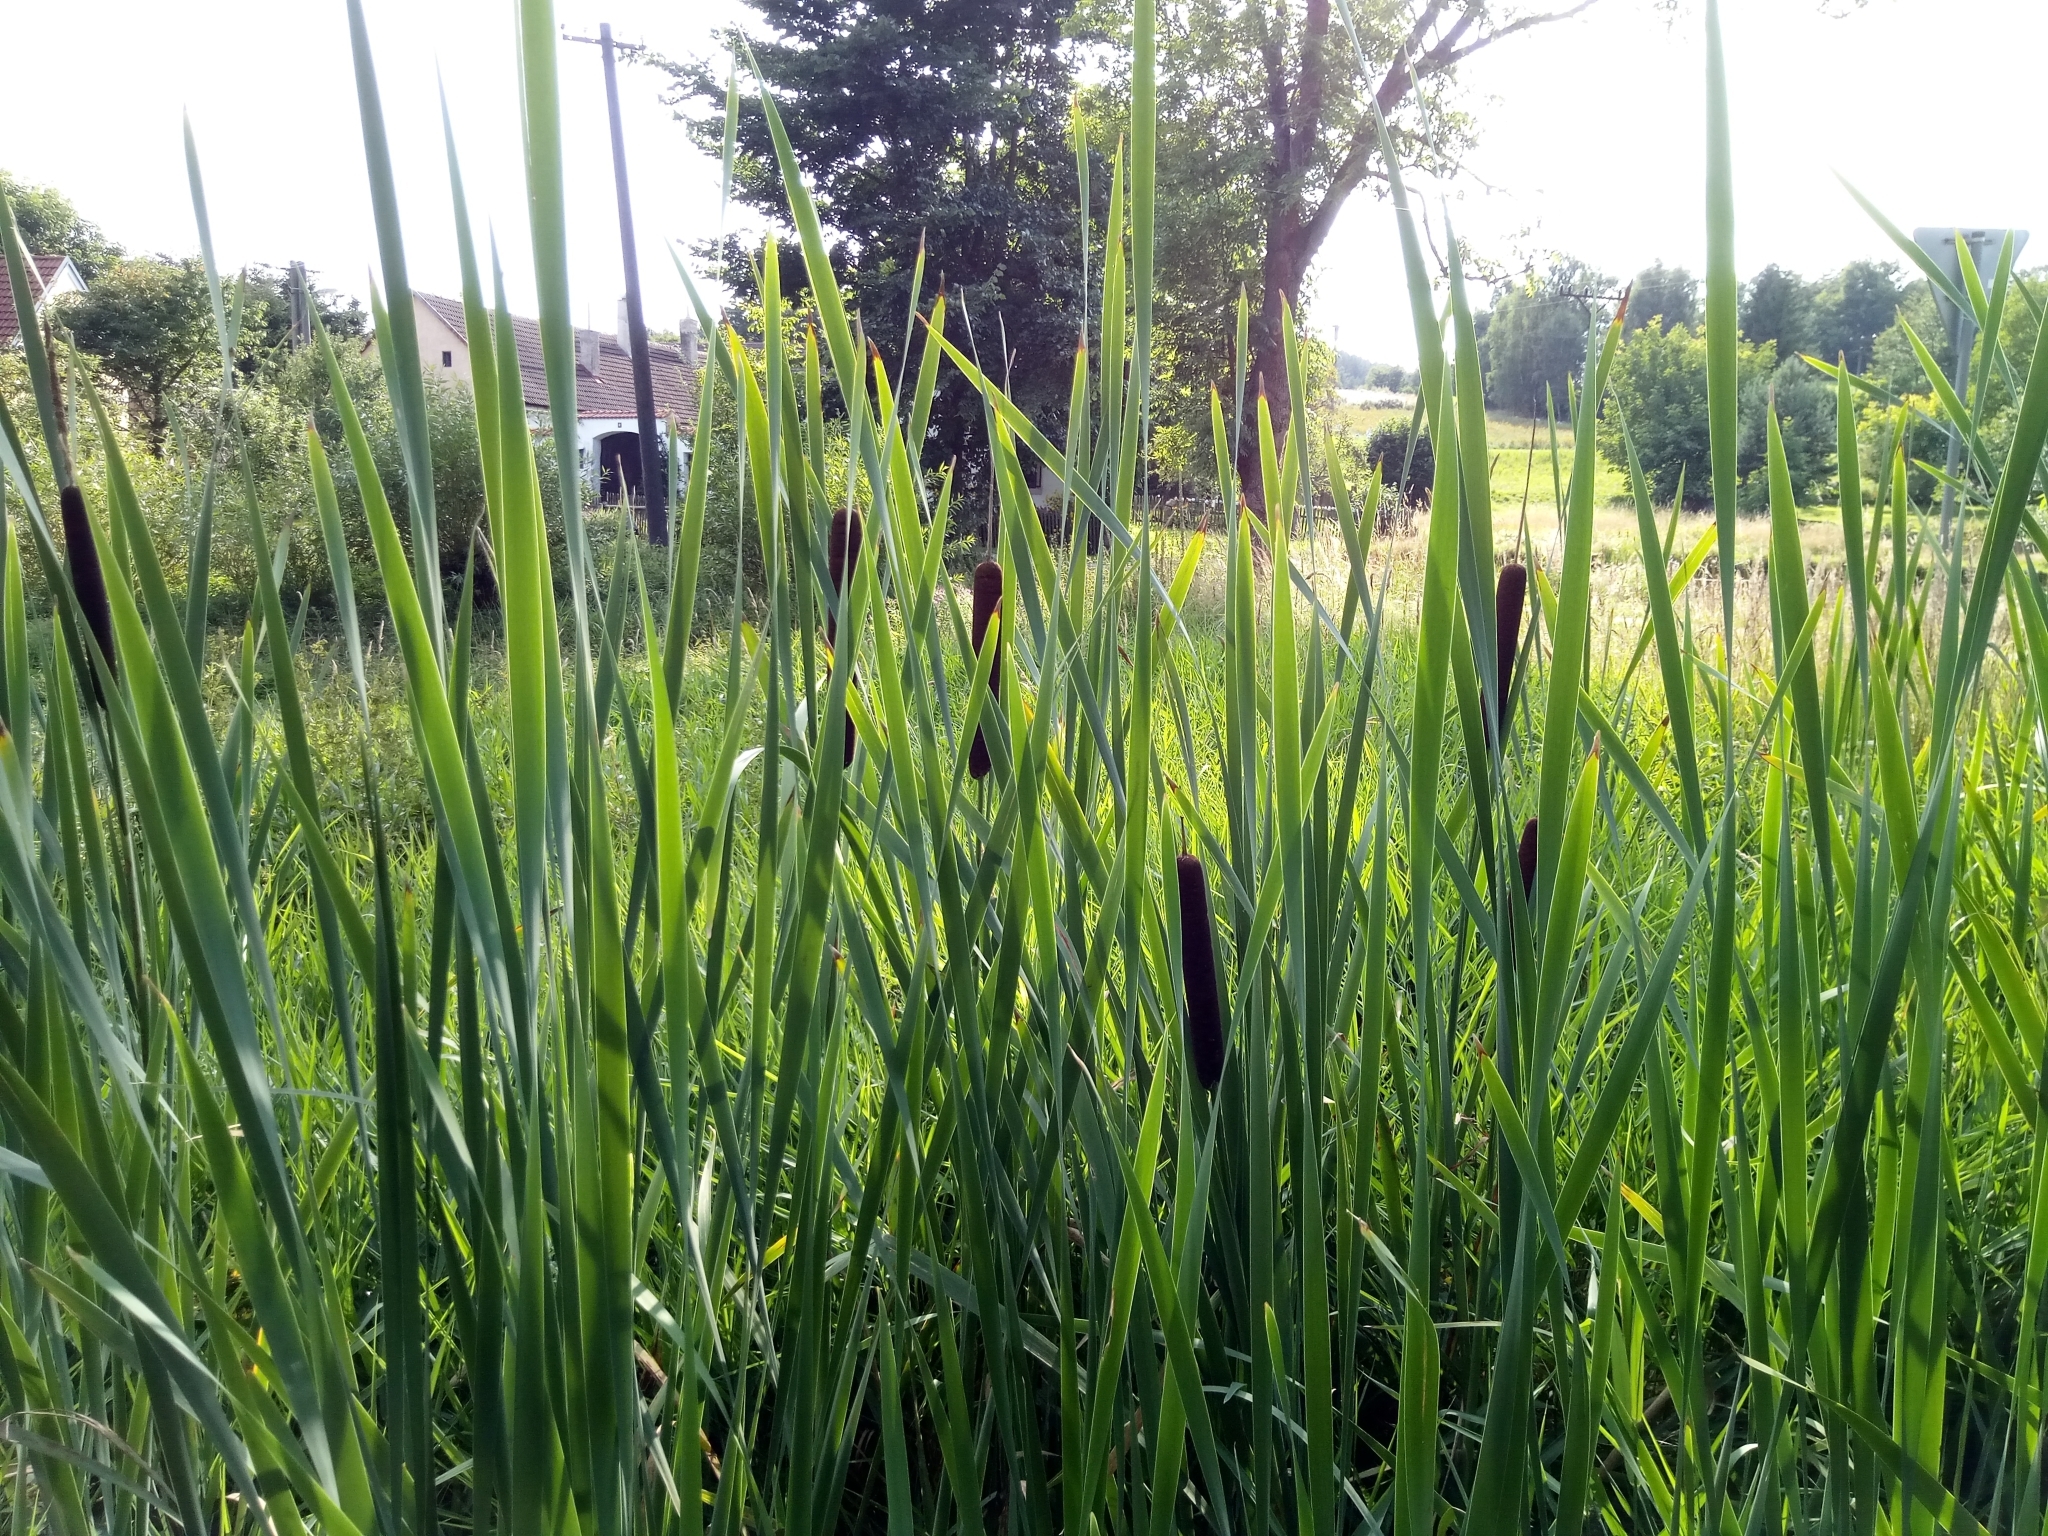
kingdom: Plantae
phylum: Tracheophyta
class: Liliopsida
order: Poales
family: Typhaceae
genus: Typha
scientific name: Typha latifolia
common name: Broadleaf cattail
